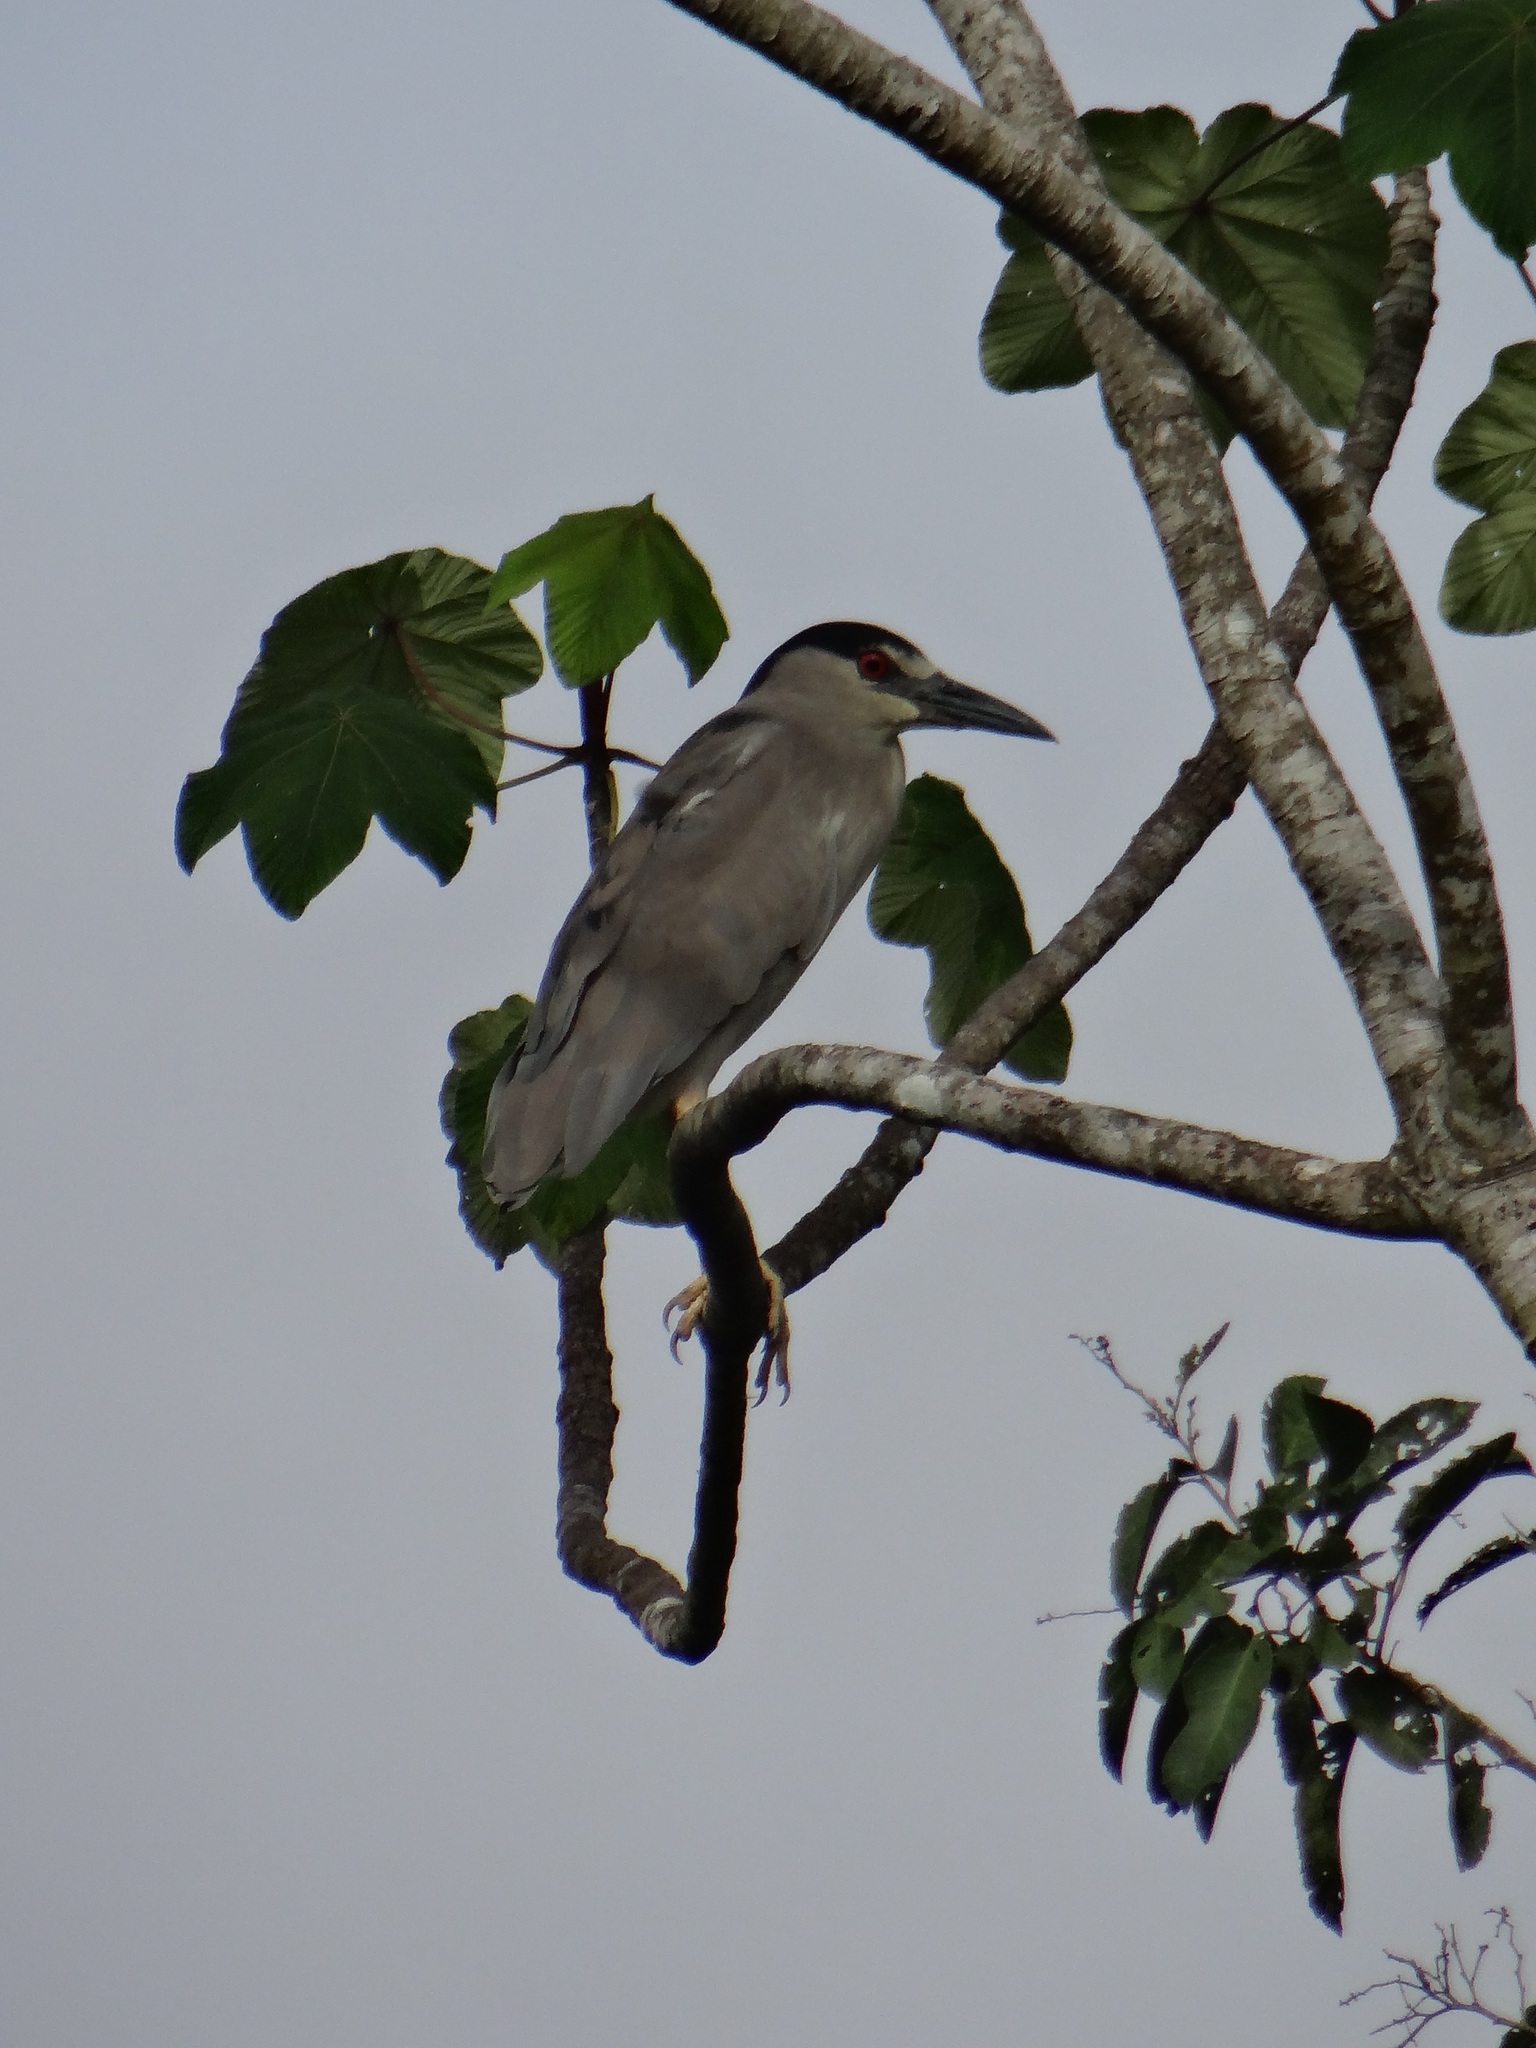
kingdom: Animalia
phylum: Chordata
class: Aves
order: Pelecaniformes
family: Ardeidae
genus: Nycticorax
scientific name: Nycticorax nycticorax
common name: Black-crowned night heron
